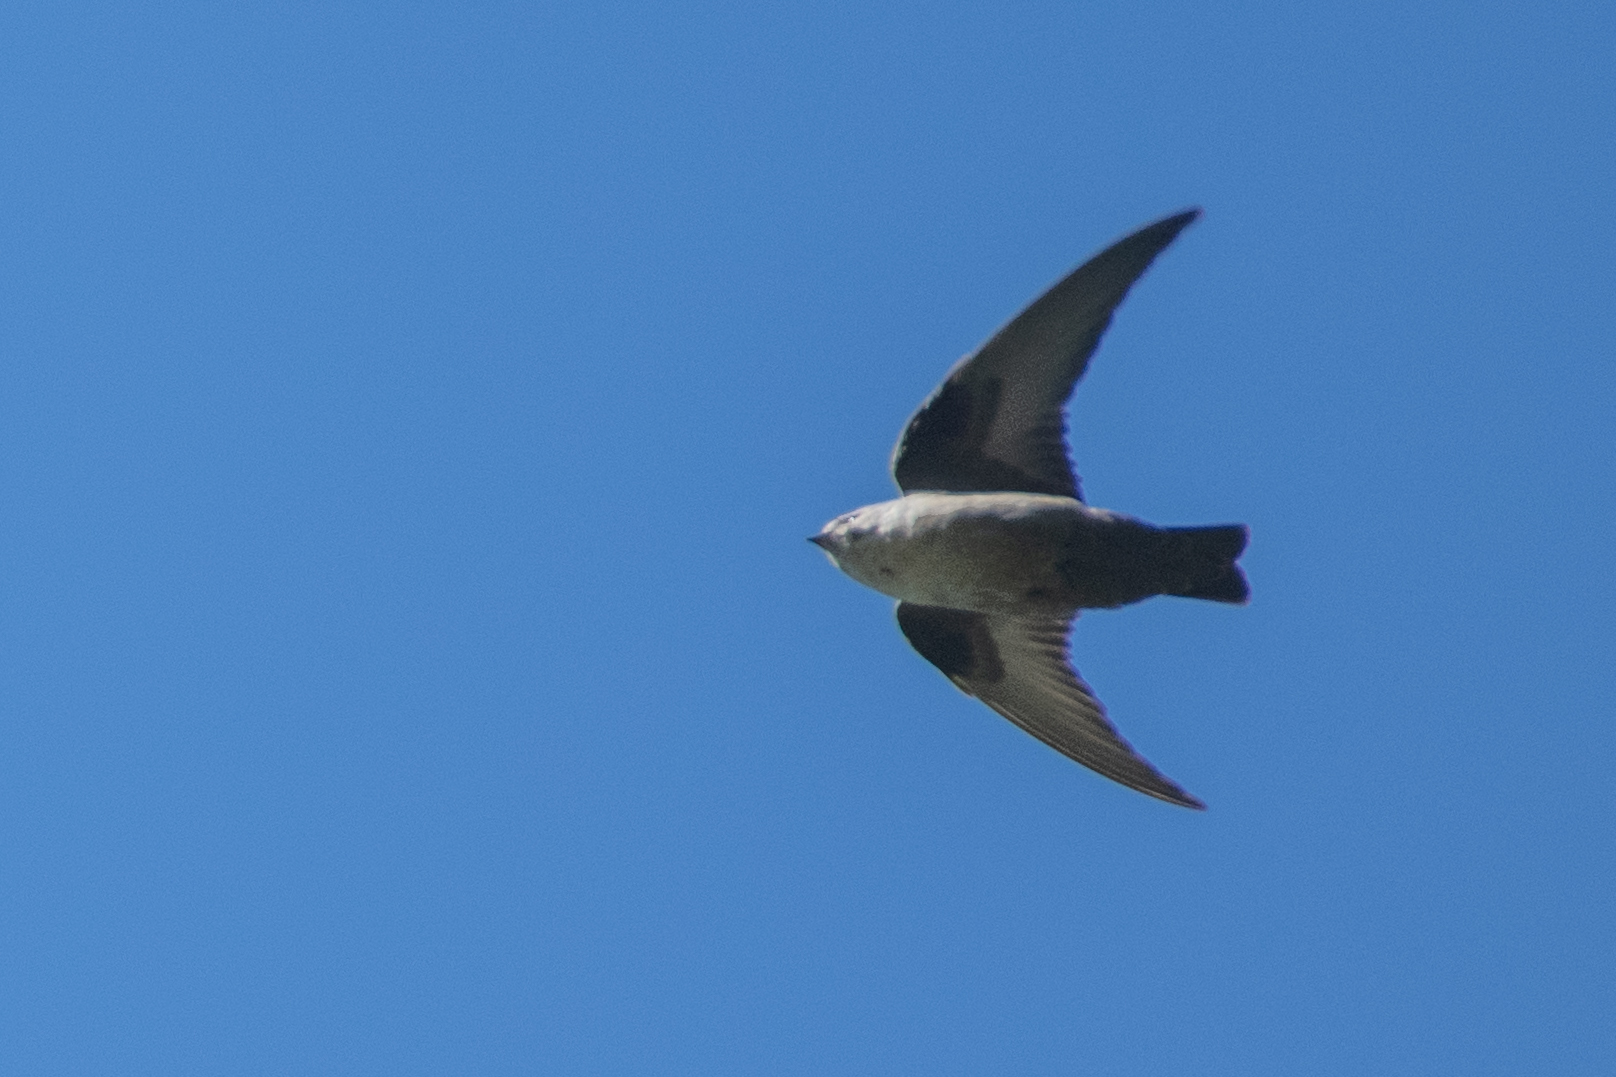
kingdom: Animalia
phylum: Chordata
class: Aves
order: Passeriformes
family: Hirundinidae
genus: Ptyonoprogne
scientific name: Ptyonoprogne rupestris
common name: Eurasian crag martin
